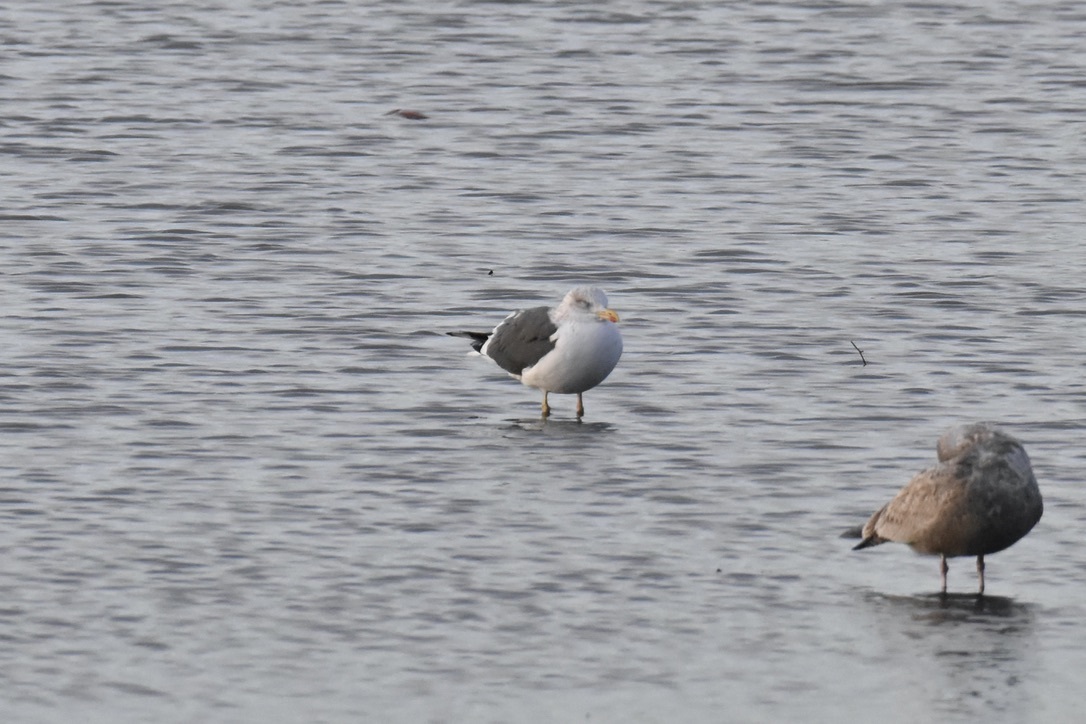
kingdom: Animalia
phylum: Chordata
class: Aves
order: Charadriiformes
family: Laridae
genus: Larus
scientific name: Larus fuscus
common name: Lesser black-backed gull
